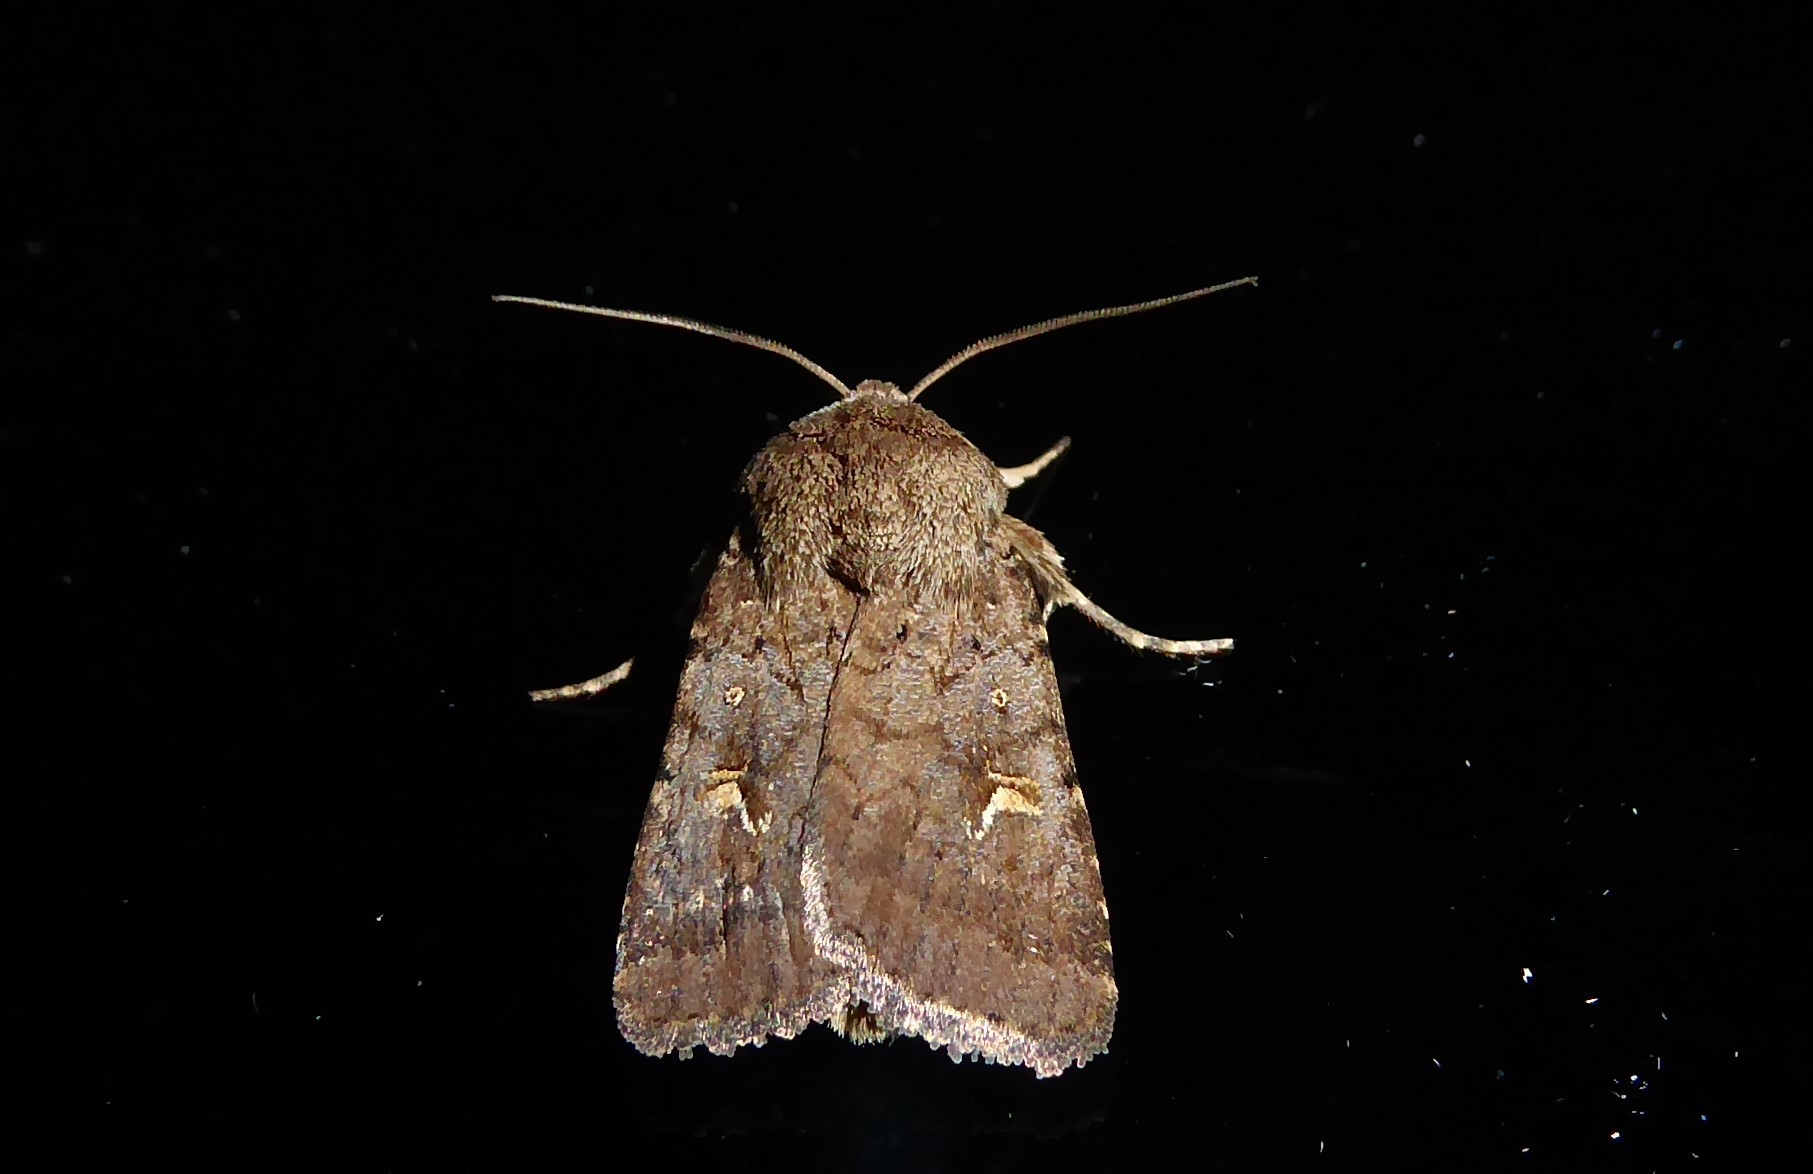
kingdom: Animalia
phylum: Arthropoda
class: Insecta
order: Lepidoptera
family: Noctuidae
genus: Proteuxoa
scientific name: Proteuxoa tetronycha
